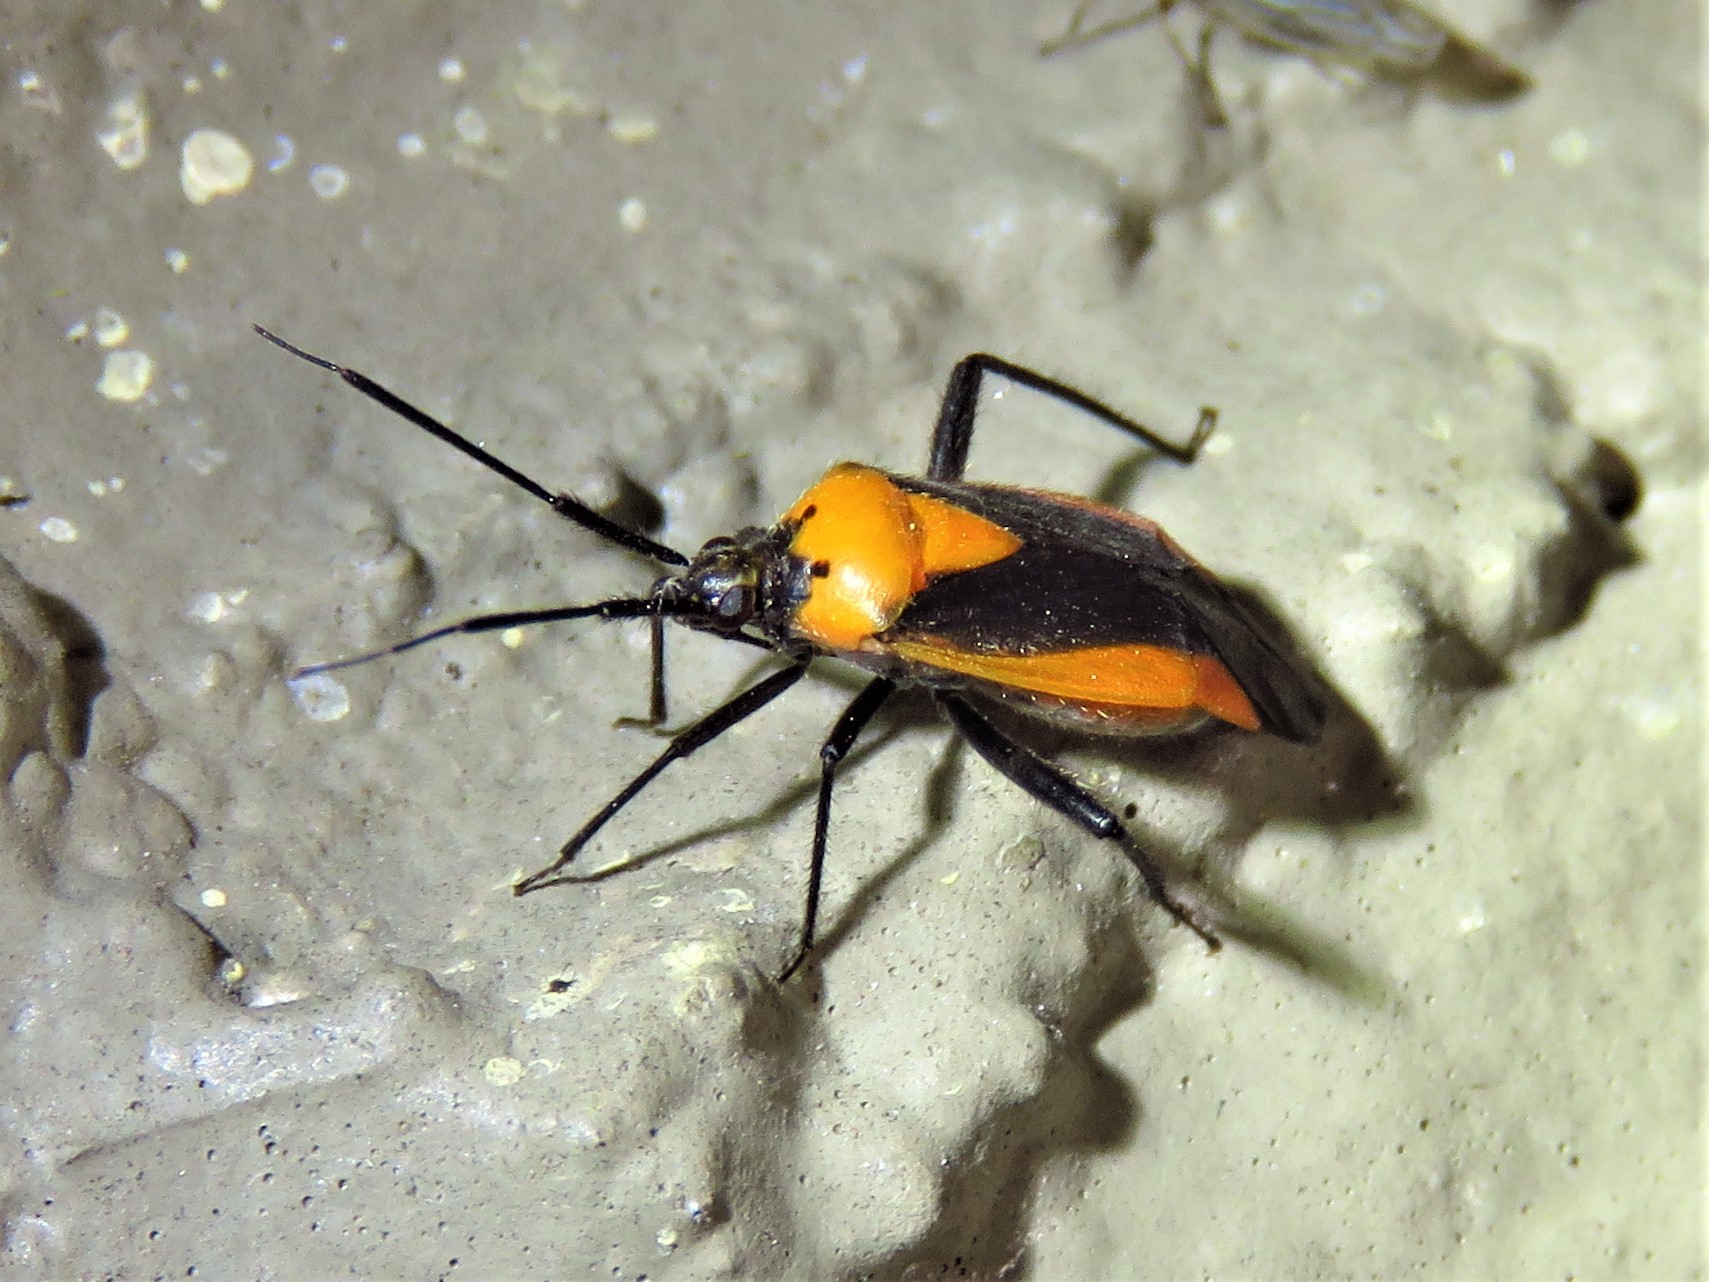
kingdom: Animalia
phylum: Arthropoda
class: Insecta
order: Hemiptera
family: Miridae
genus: Taedia
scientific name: Taedia scrupea
